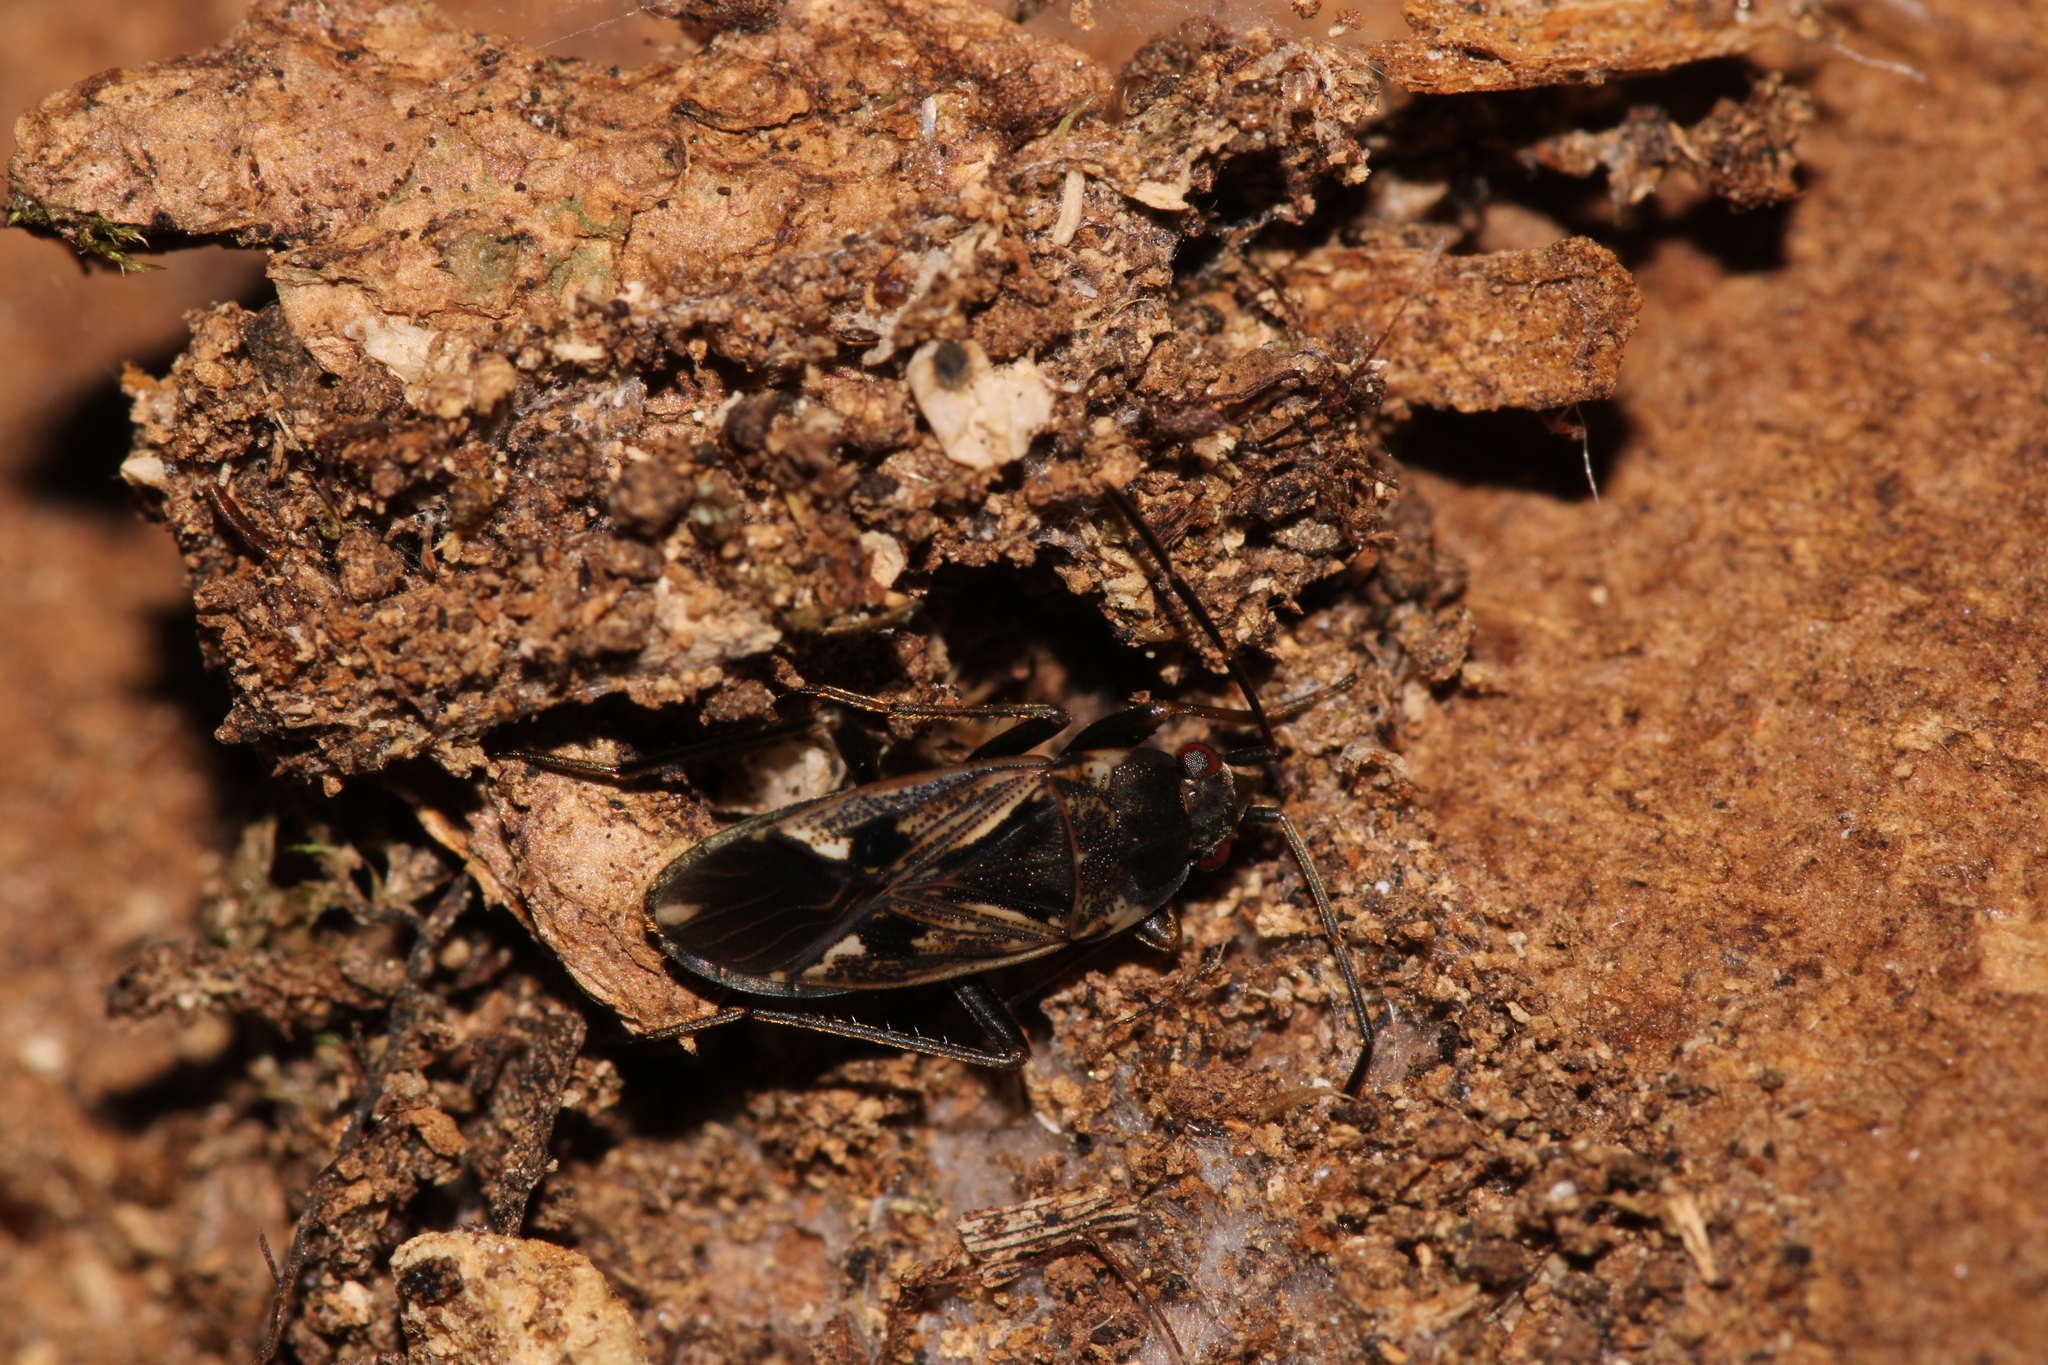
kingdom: Animalia
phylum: Arthropoda
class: Insecta
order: Hemiptera
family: Rhyparochromidae
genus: Rhyparochromus
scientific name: Rhyparochromus vulgaris
